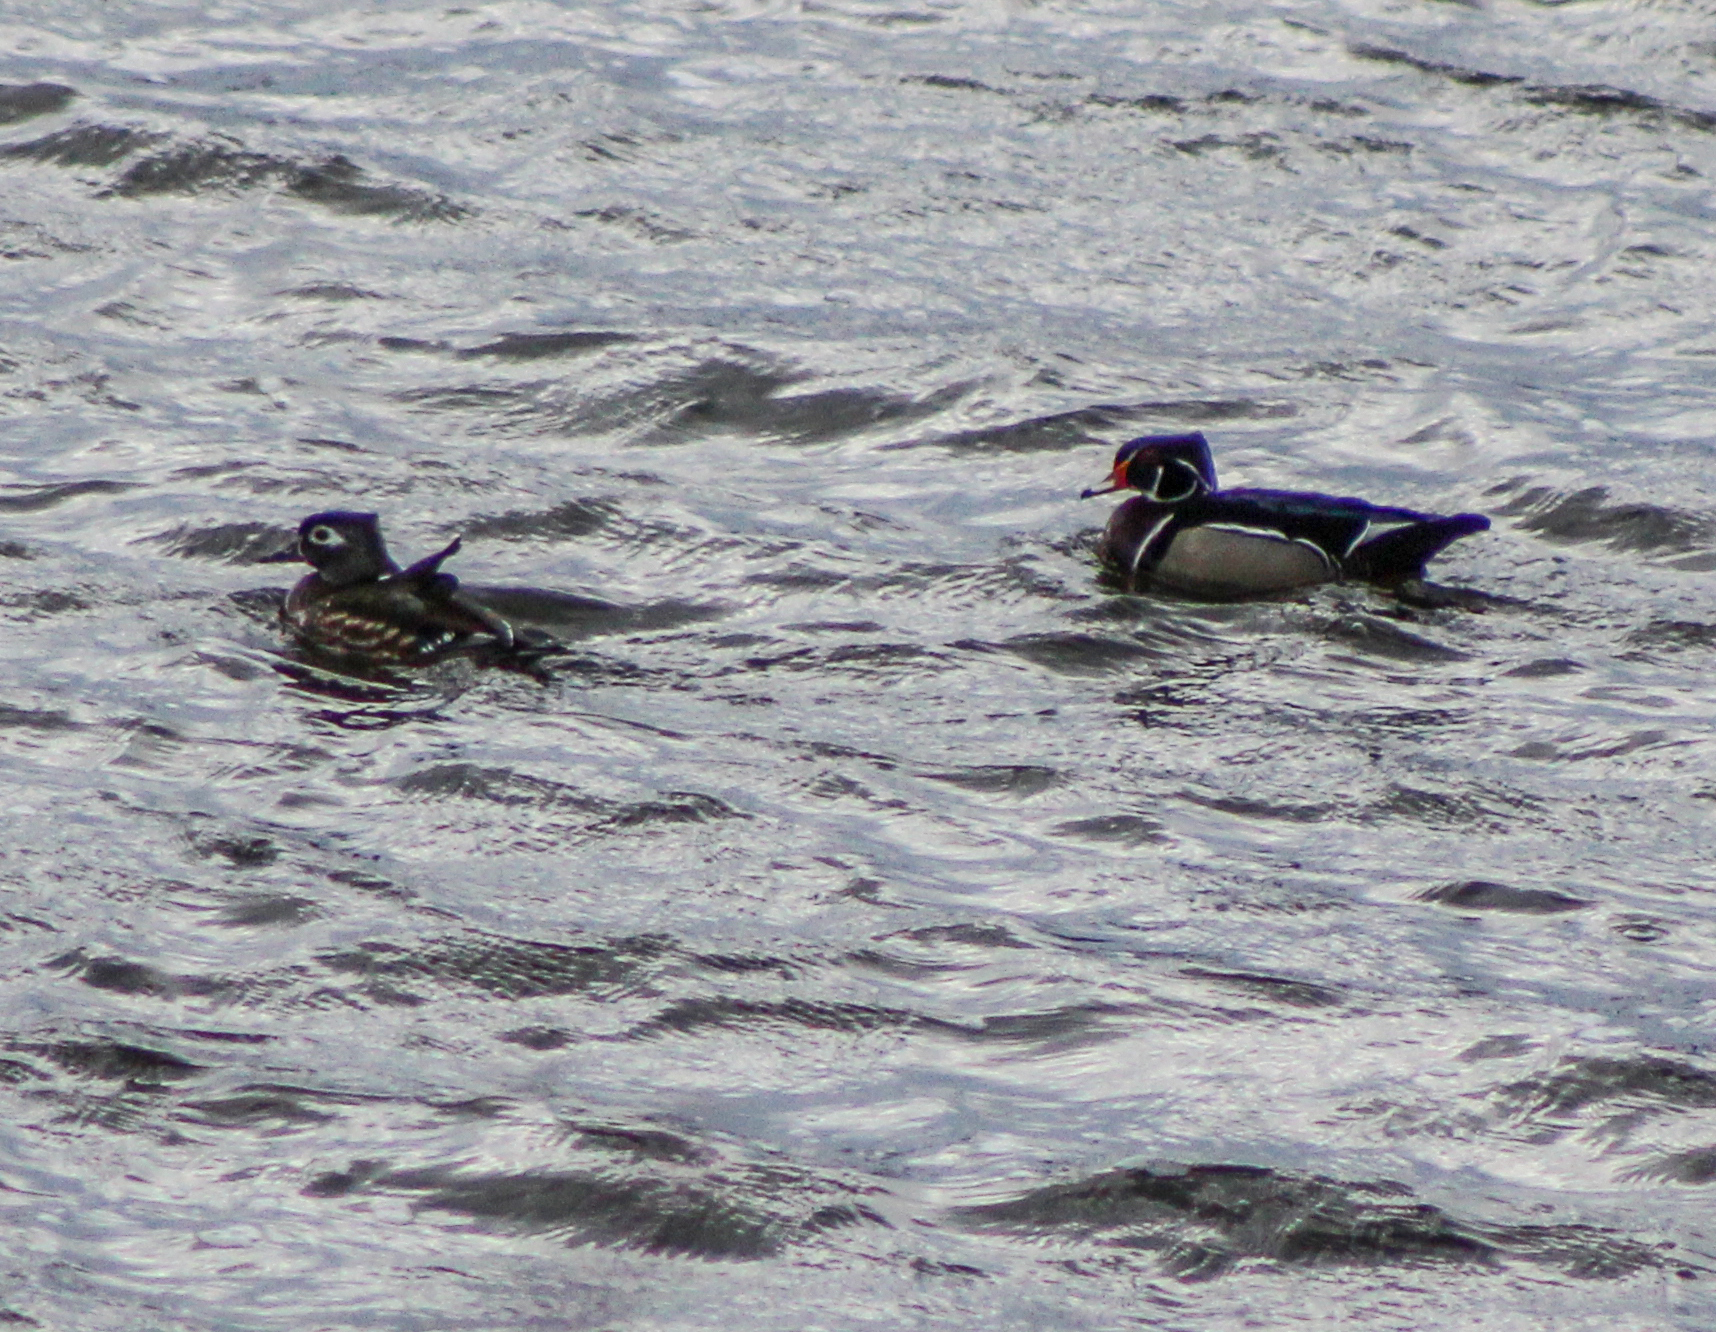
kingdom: Animalia
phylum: Chordata
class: Aves
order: Anseriformes
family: Anatidae
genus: Aix
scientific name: Aix sponsa
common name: Wood duck
